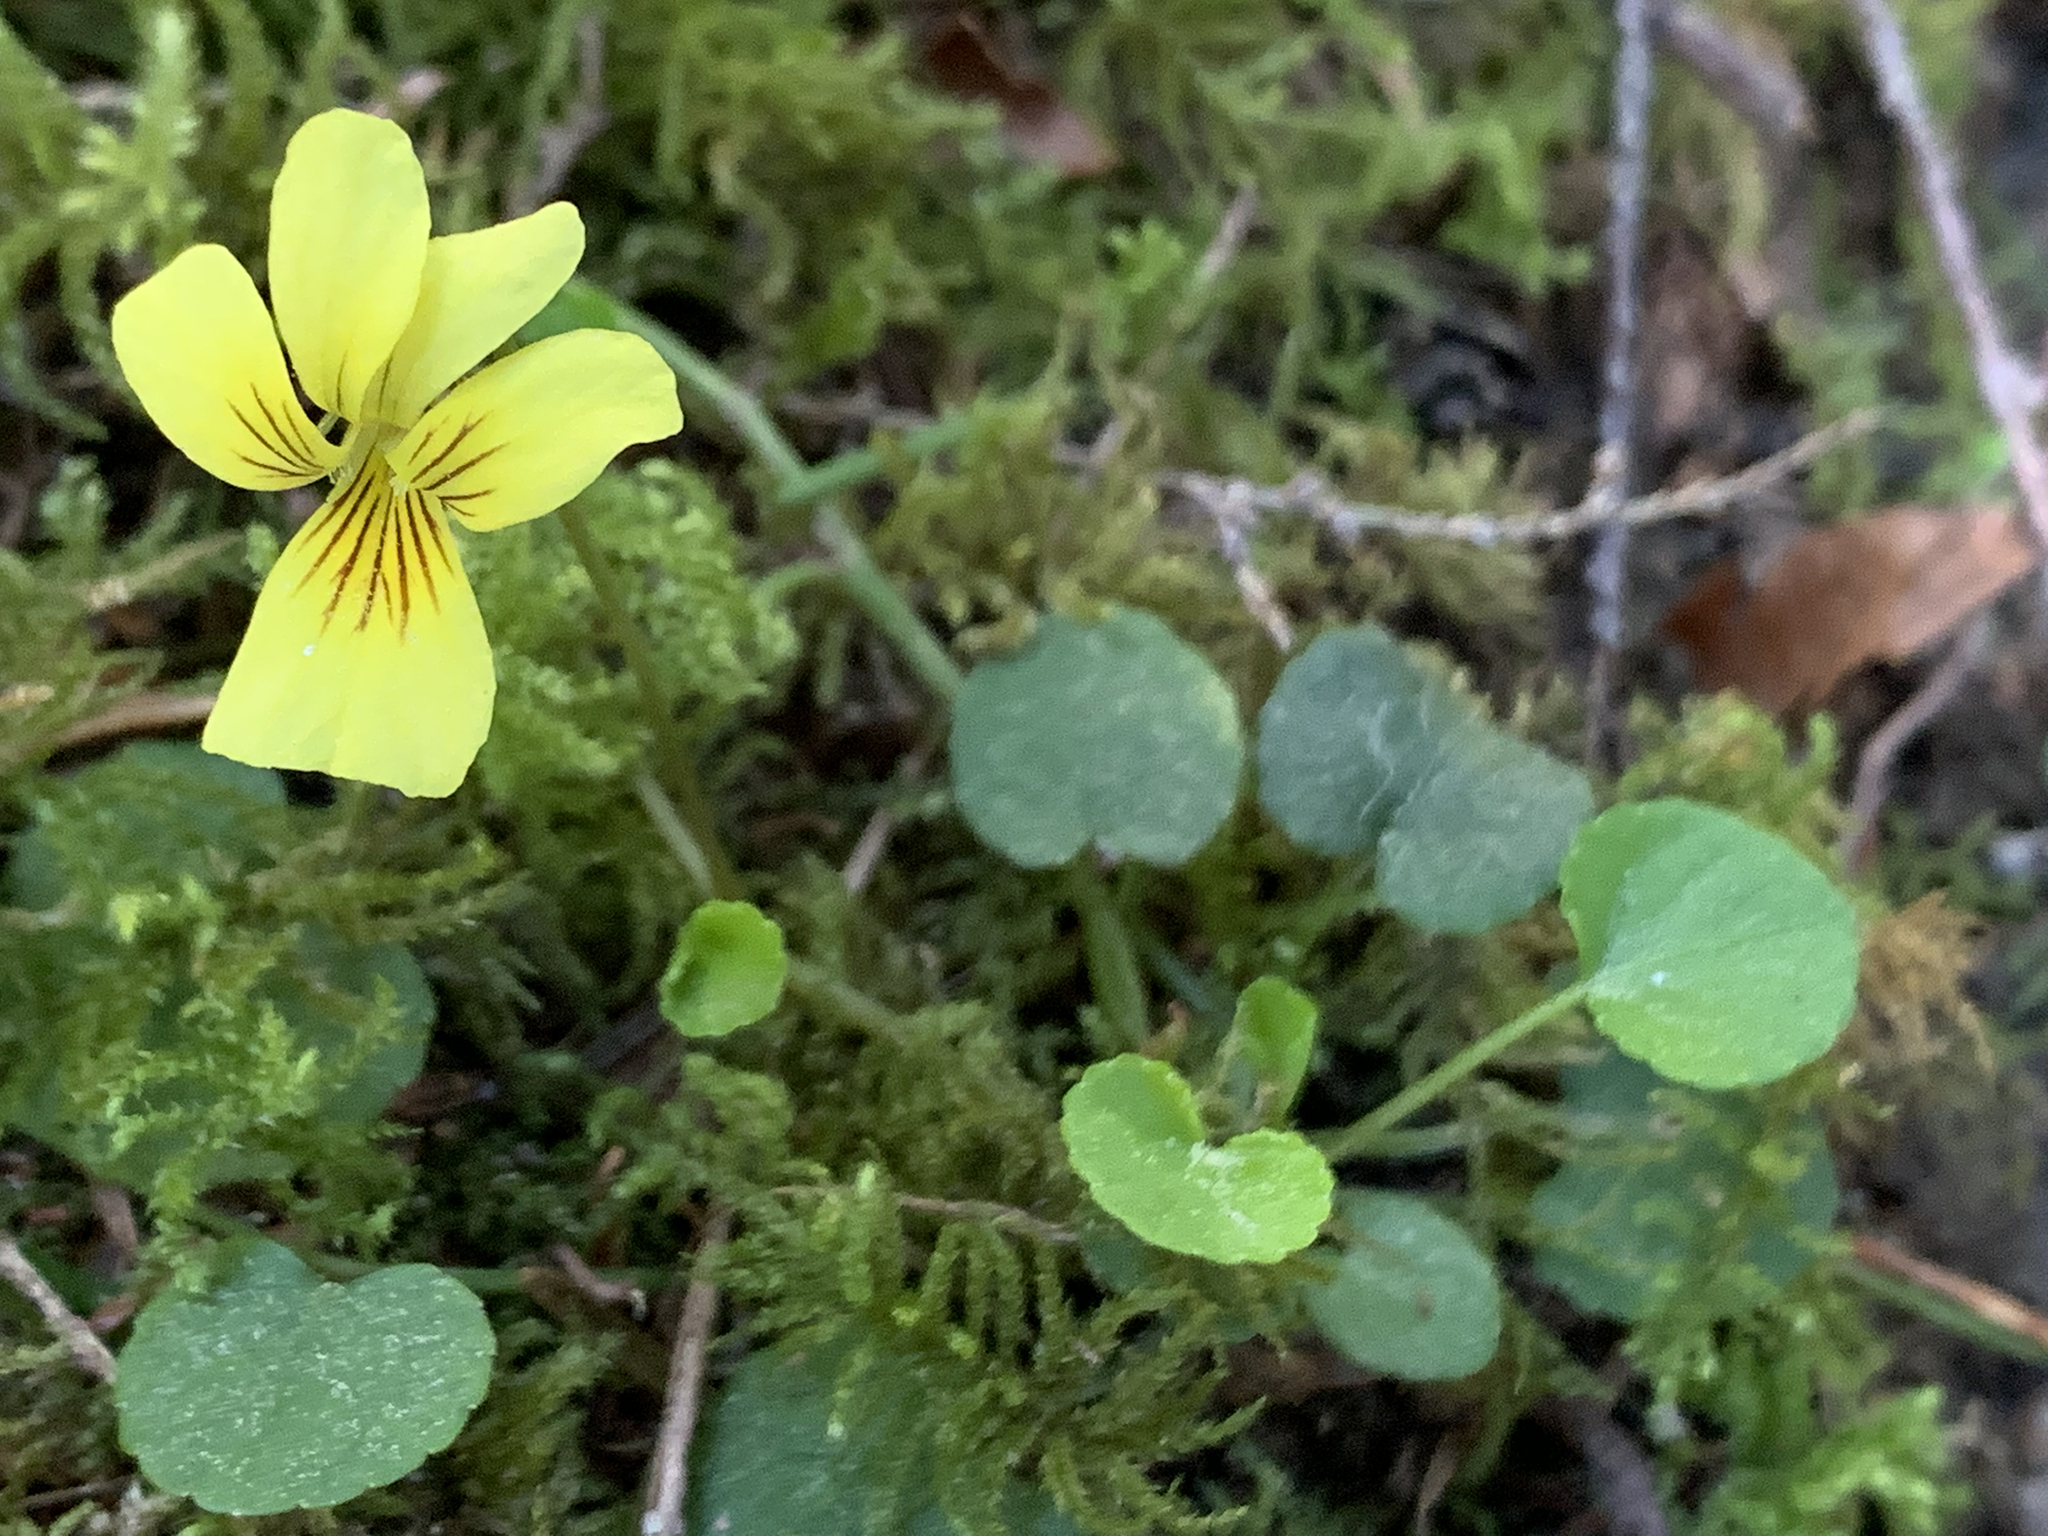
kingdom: Plantae
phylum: Tracheophyta
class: Magnoliopsida
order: Malpighiales
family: Violaceae
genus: Viola
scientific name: Viola sempervirens
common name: Evergreen violet
